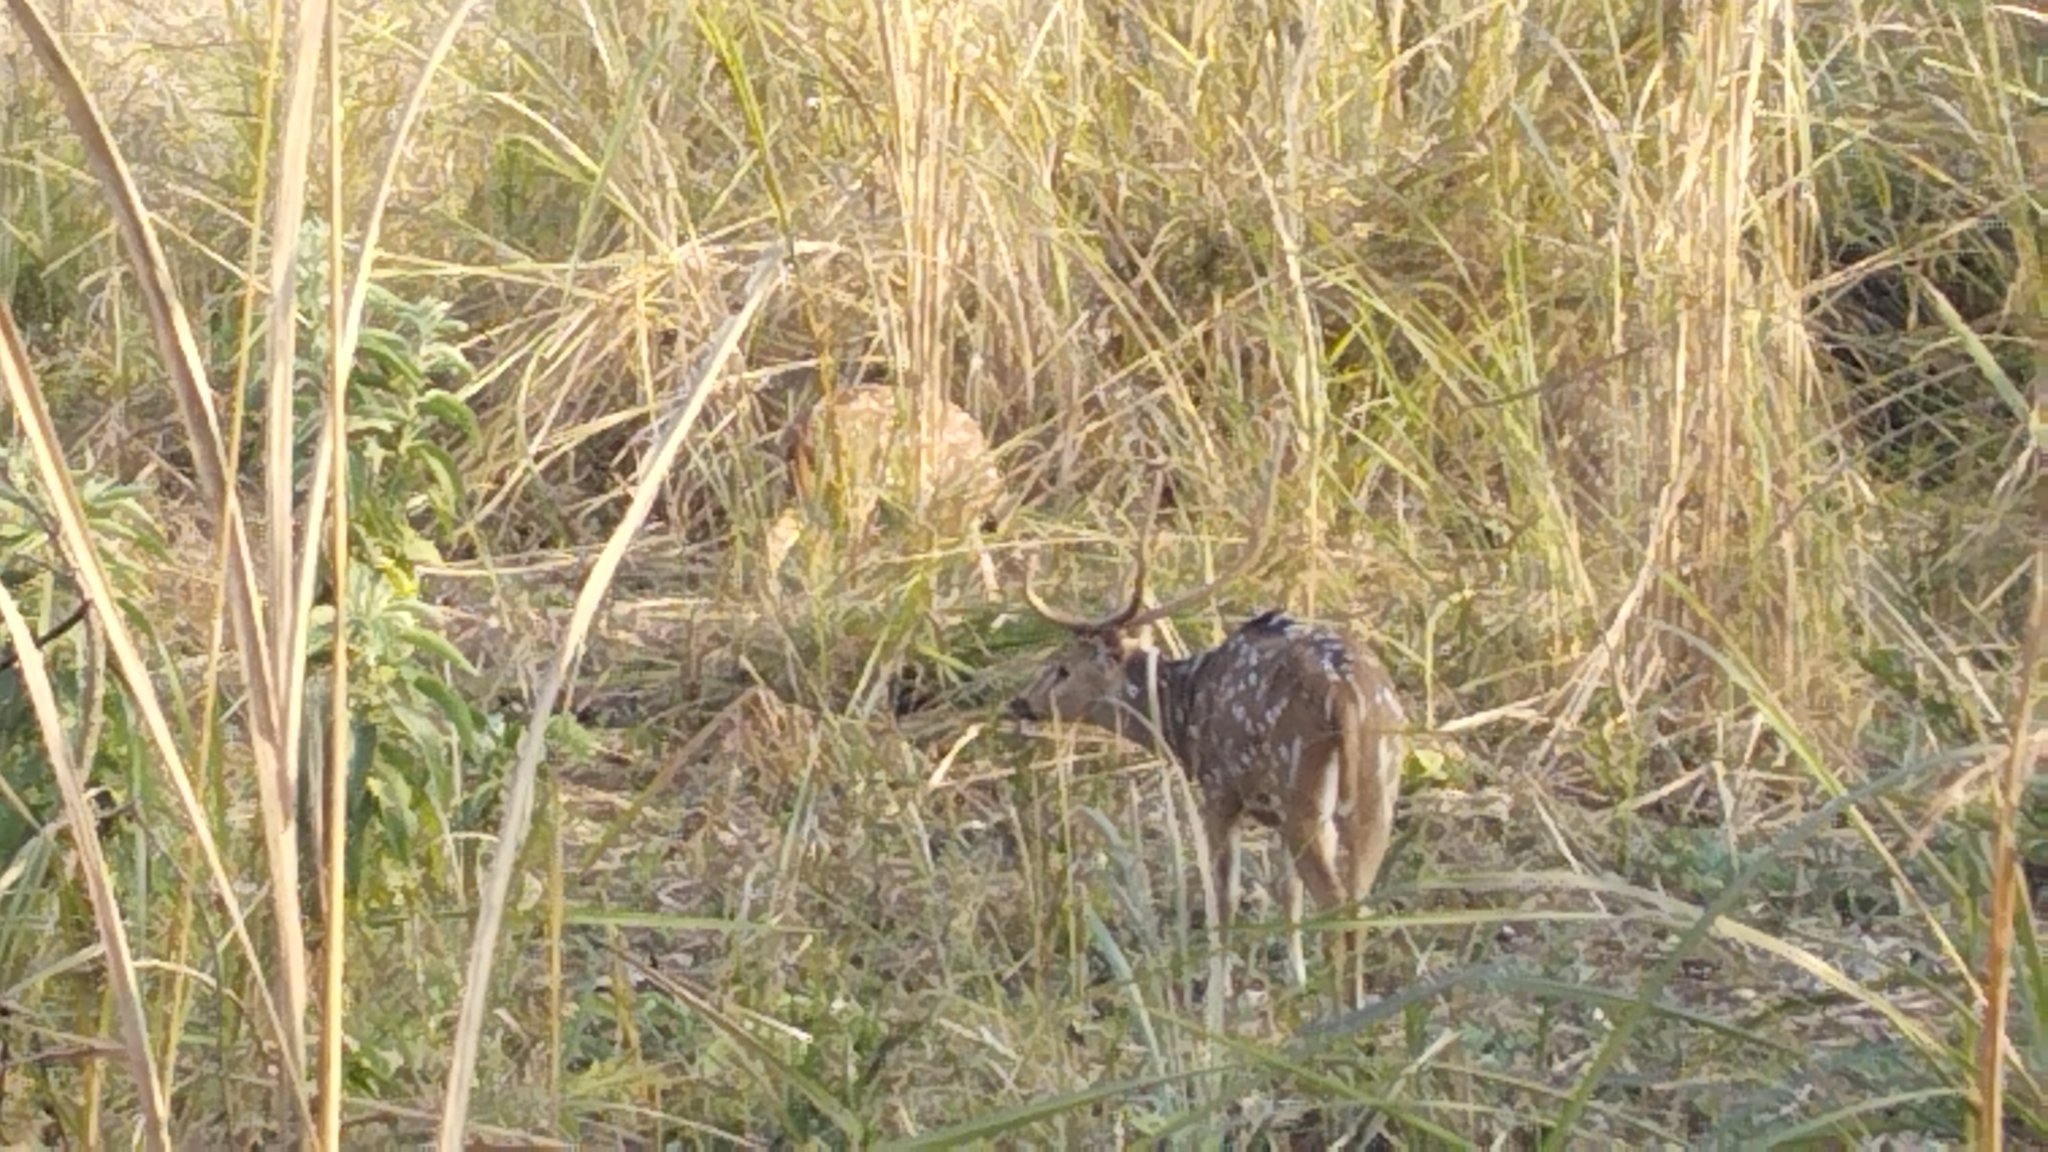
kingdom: Animalia
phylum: Chordata
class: Mammalia
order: Artiodactyla
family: Cervidae
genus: Axis
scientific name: Axis axis
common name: Chital
